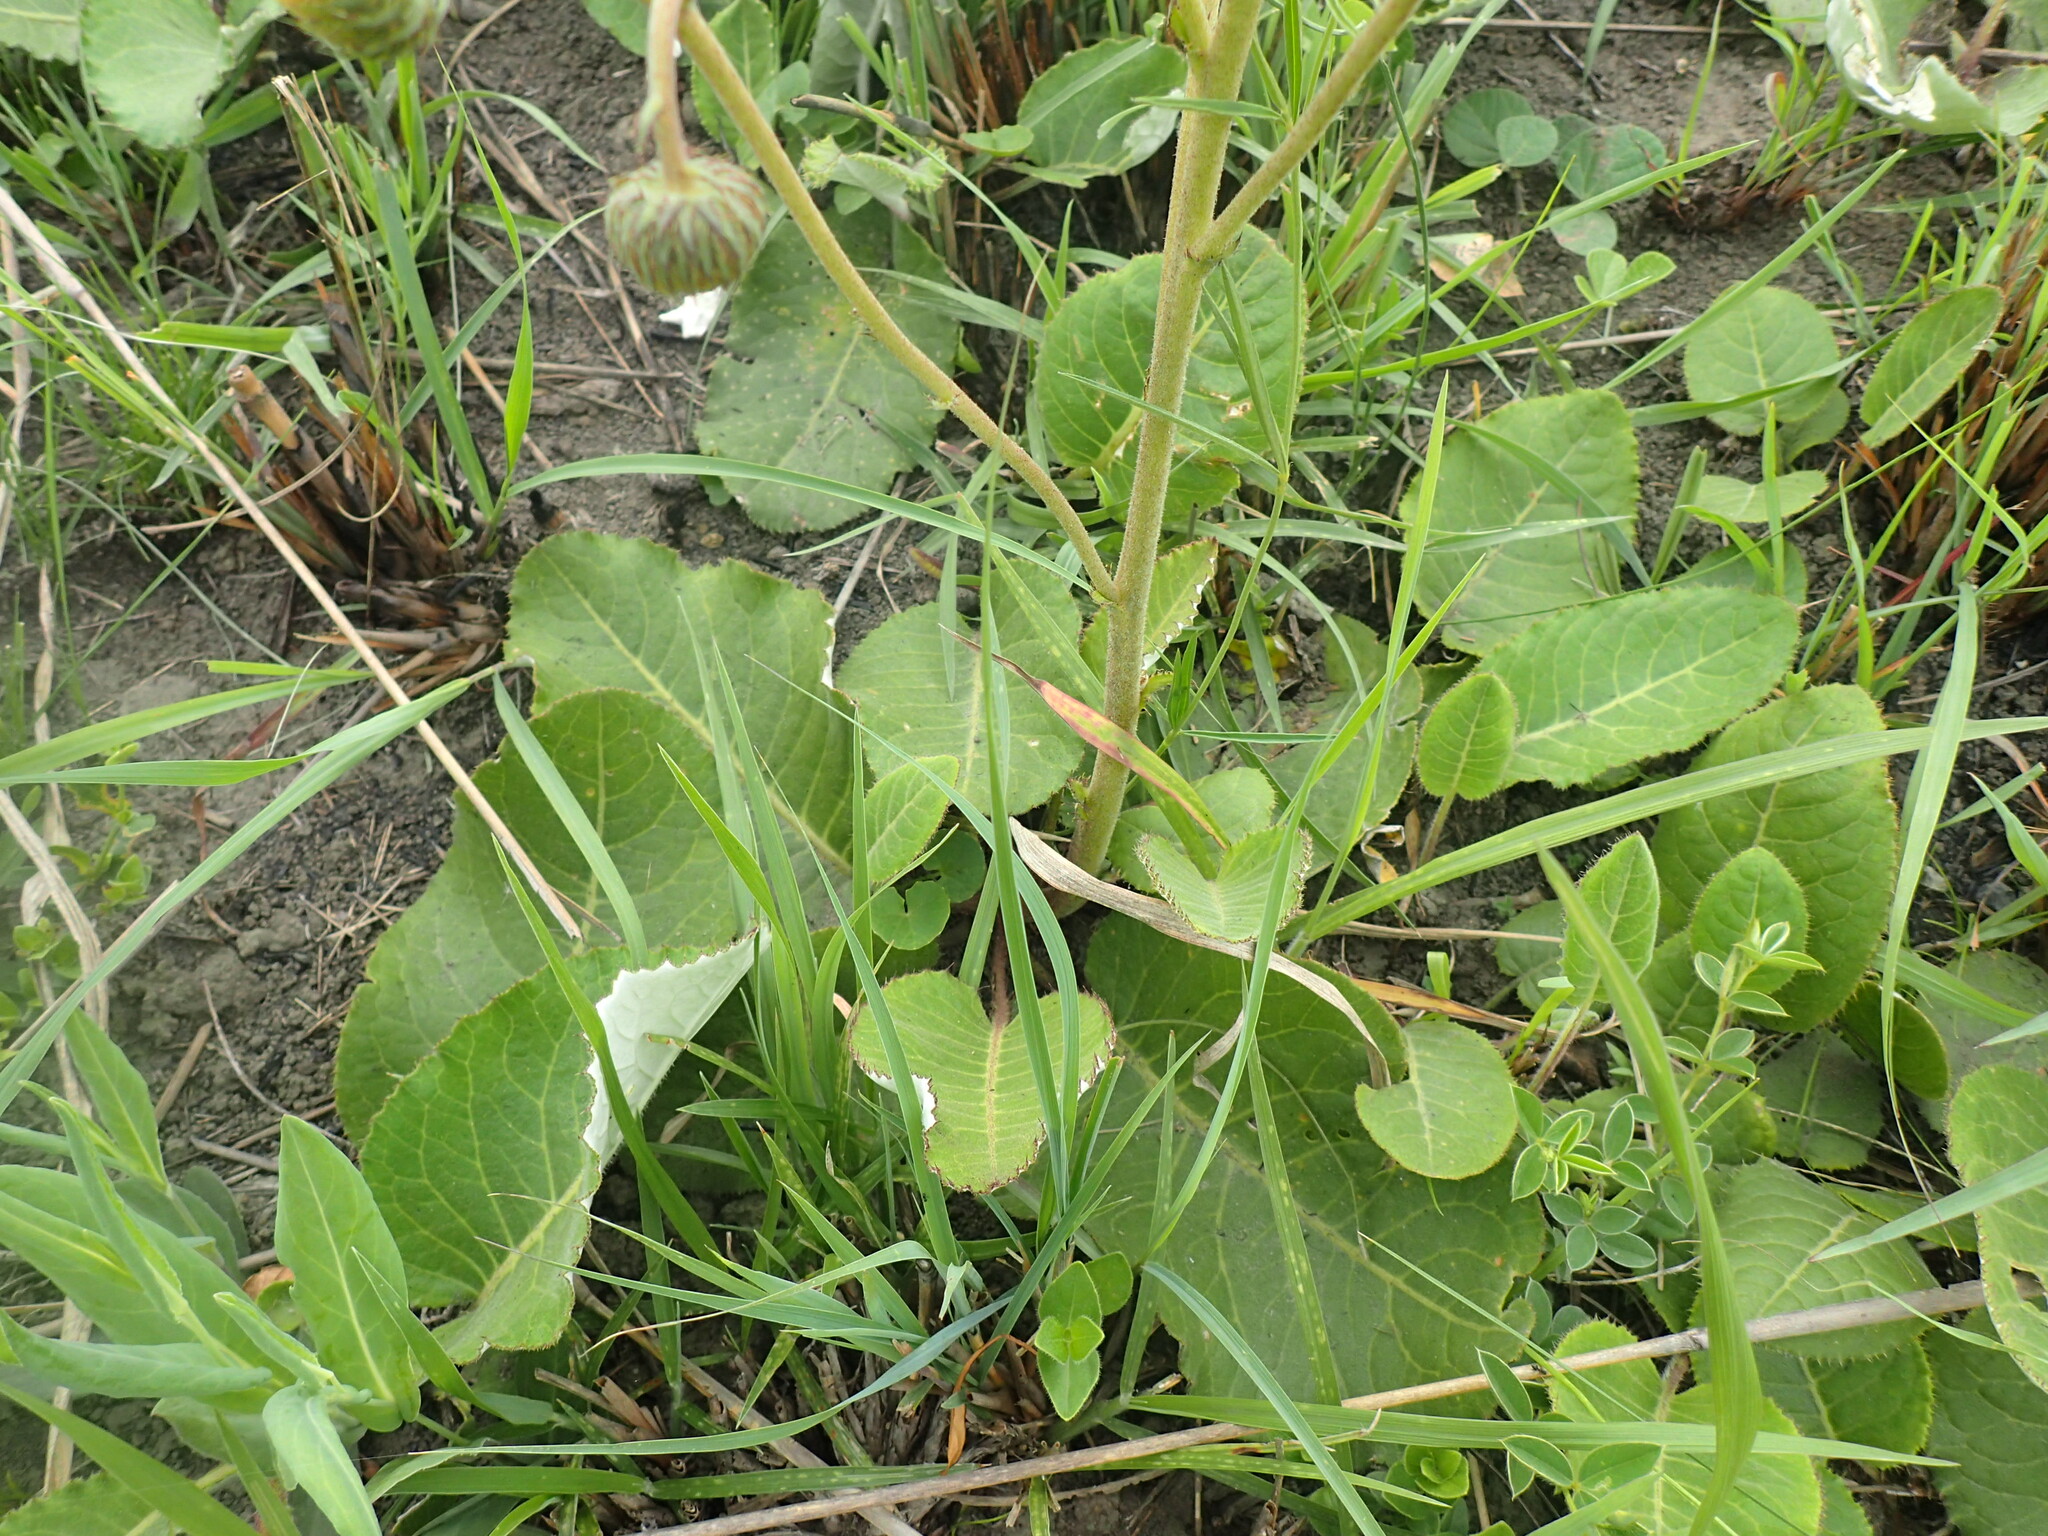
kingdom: Plantae
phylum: Tracheophyta
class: Magnoliopsida
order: Asterales
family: Asteraceae
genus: Berkheya
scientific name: Berkheya speciosa
